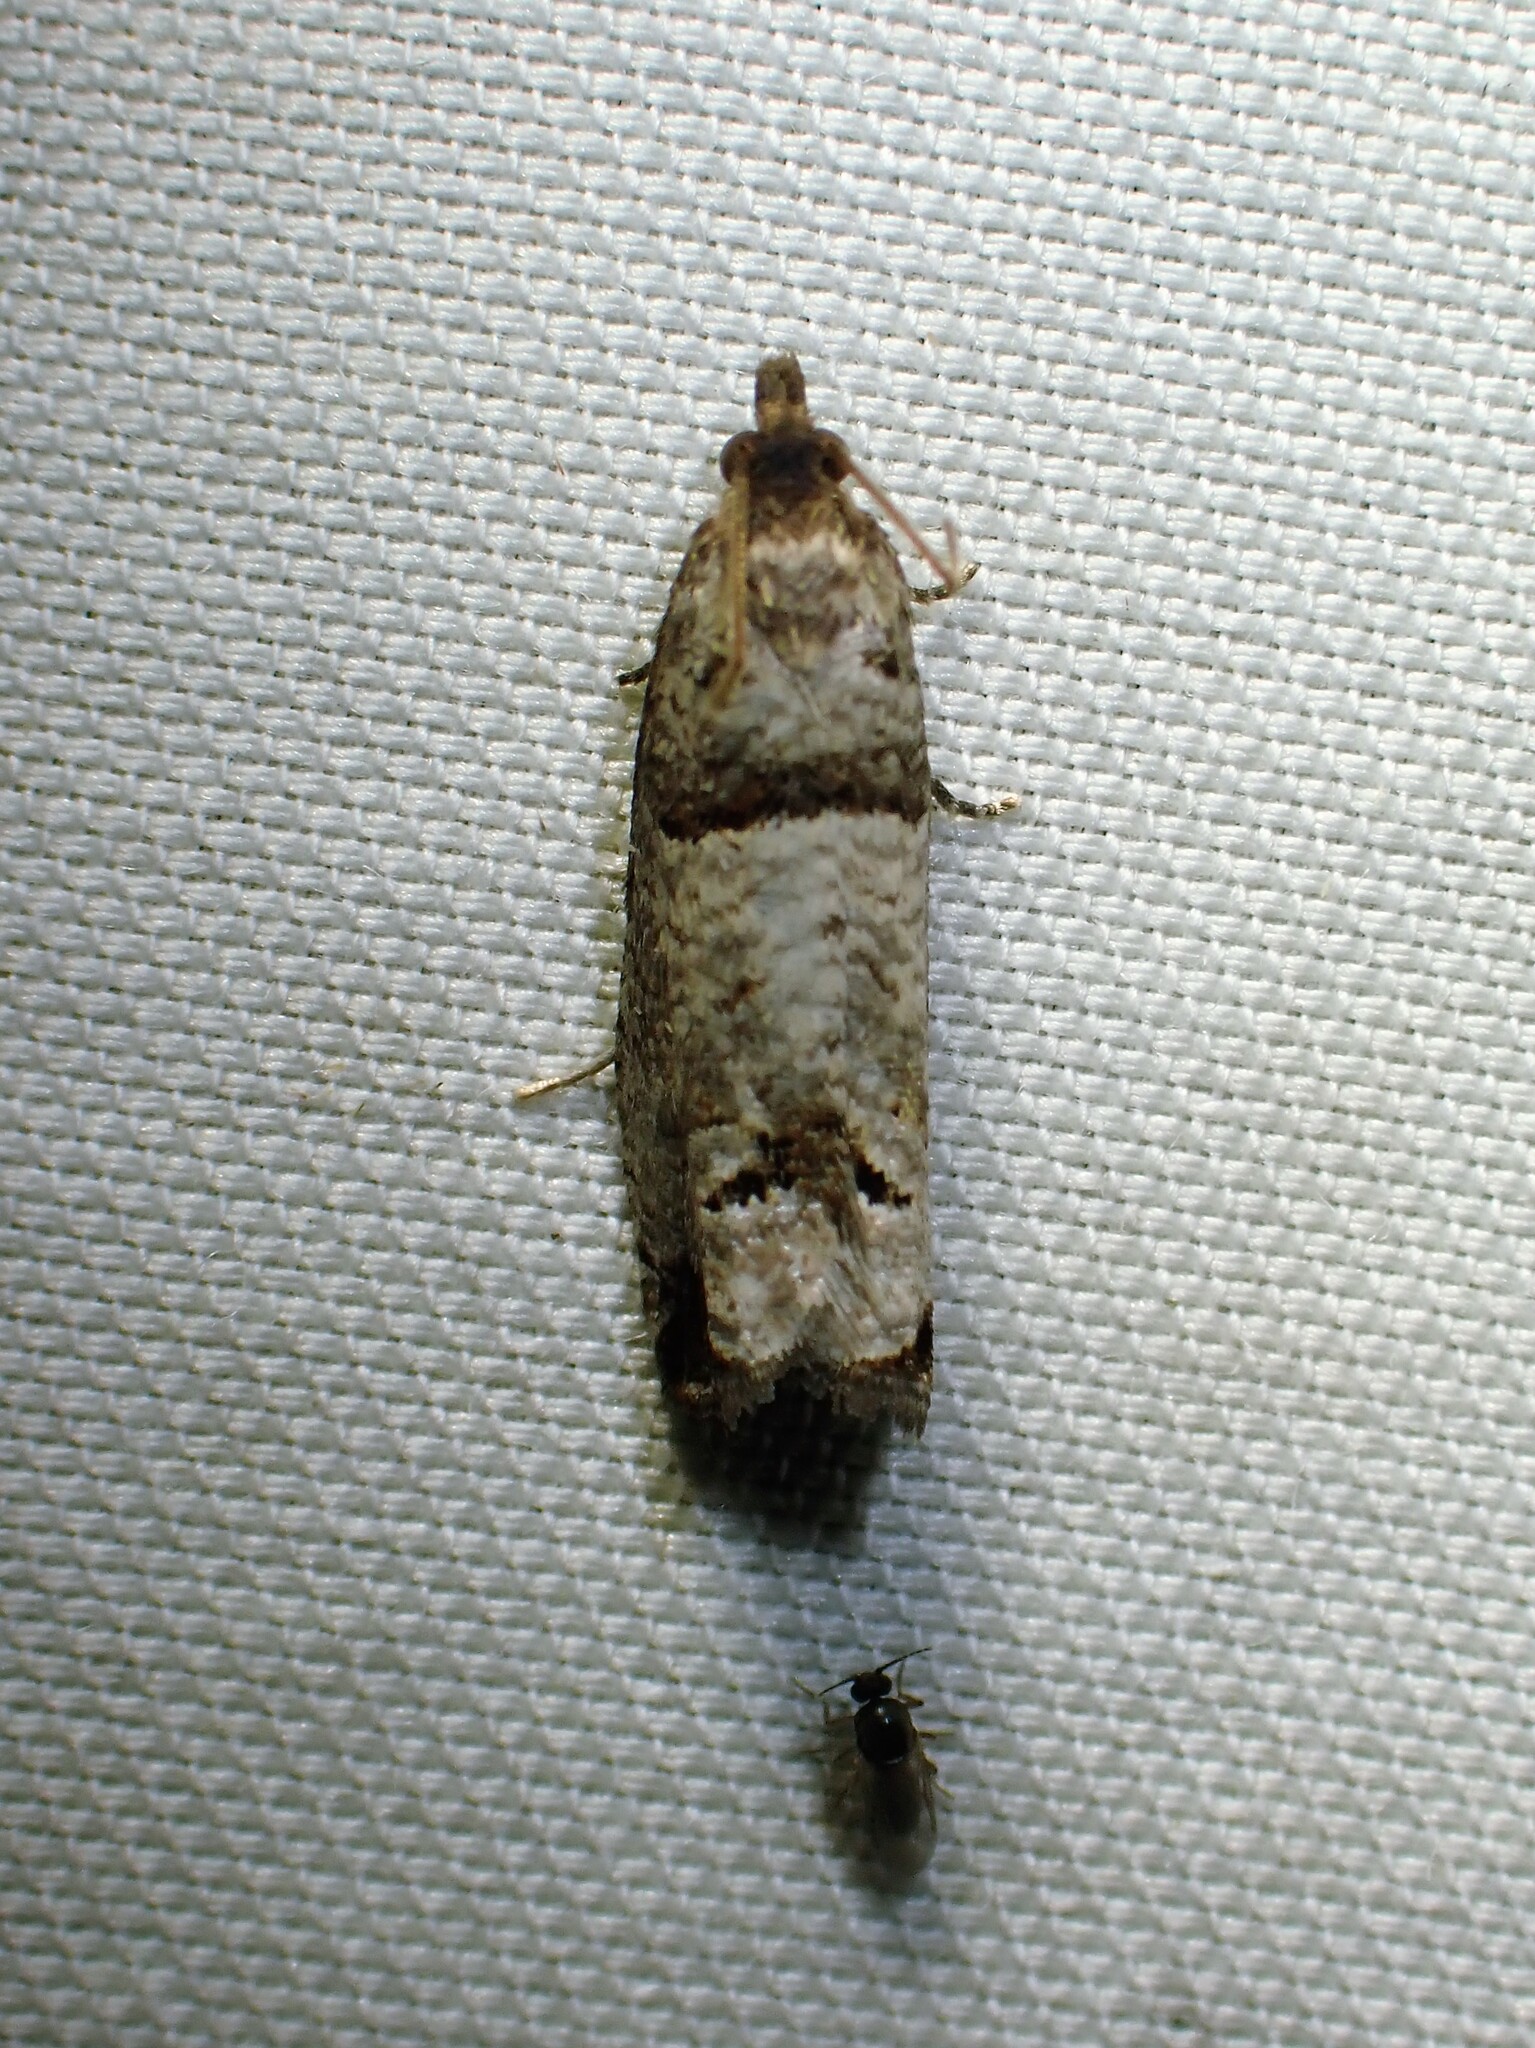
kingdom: Animalia
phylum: Arthropoda
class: Insecta
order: Lepidoptera
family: Tortricidae
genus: Notocelia
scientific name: Notocelia culminana
